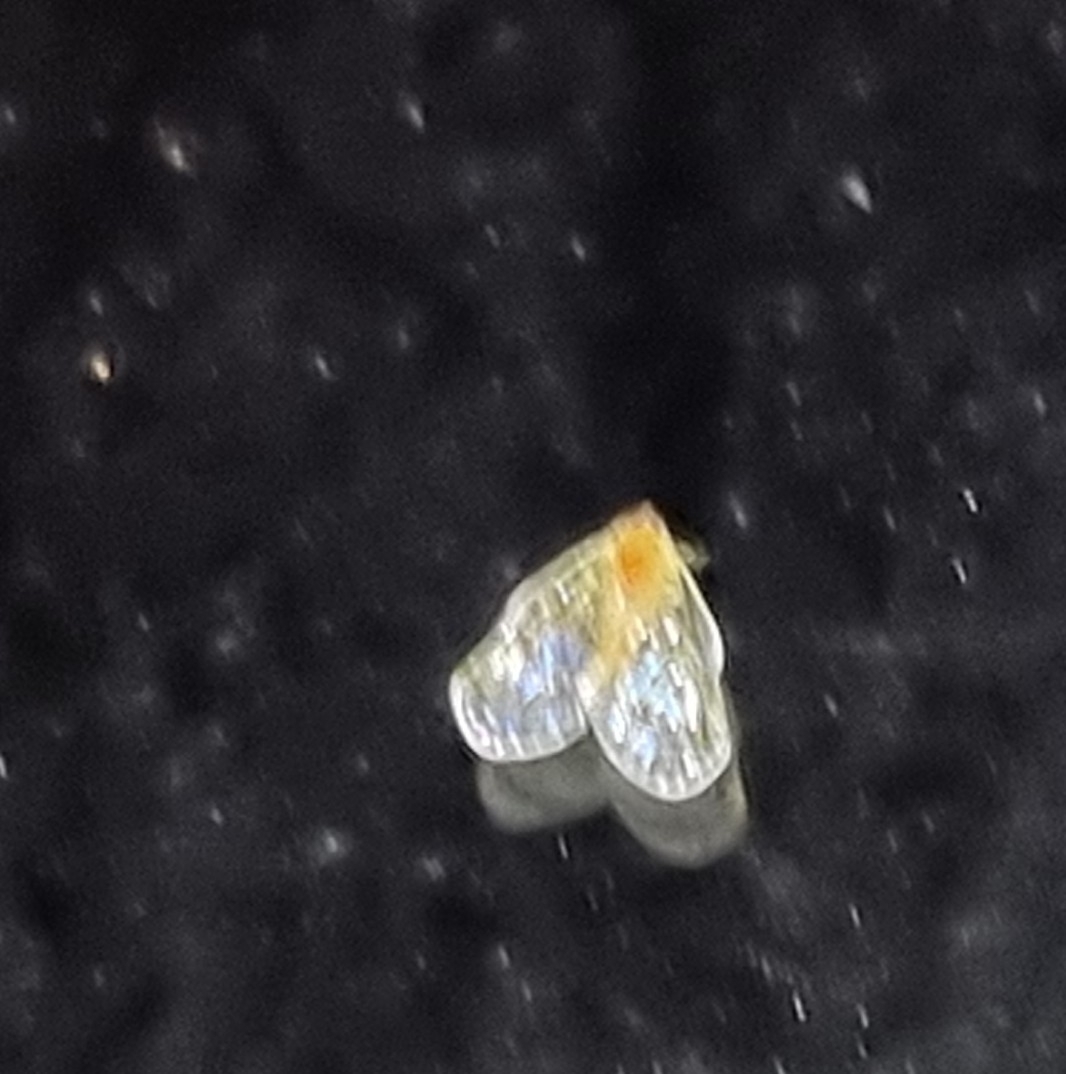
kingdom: Animalia
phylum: Arthropoda
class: Insecta
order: Hemiptera
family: Derbidae
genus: Saccharodite
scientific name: Saccharodite chrysonoe
